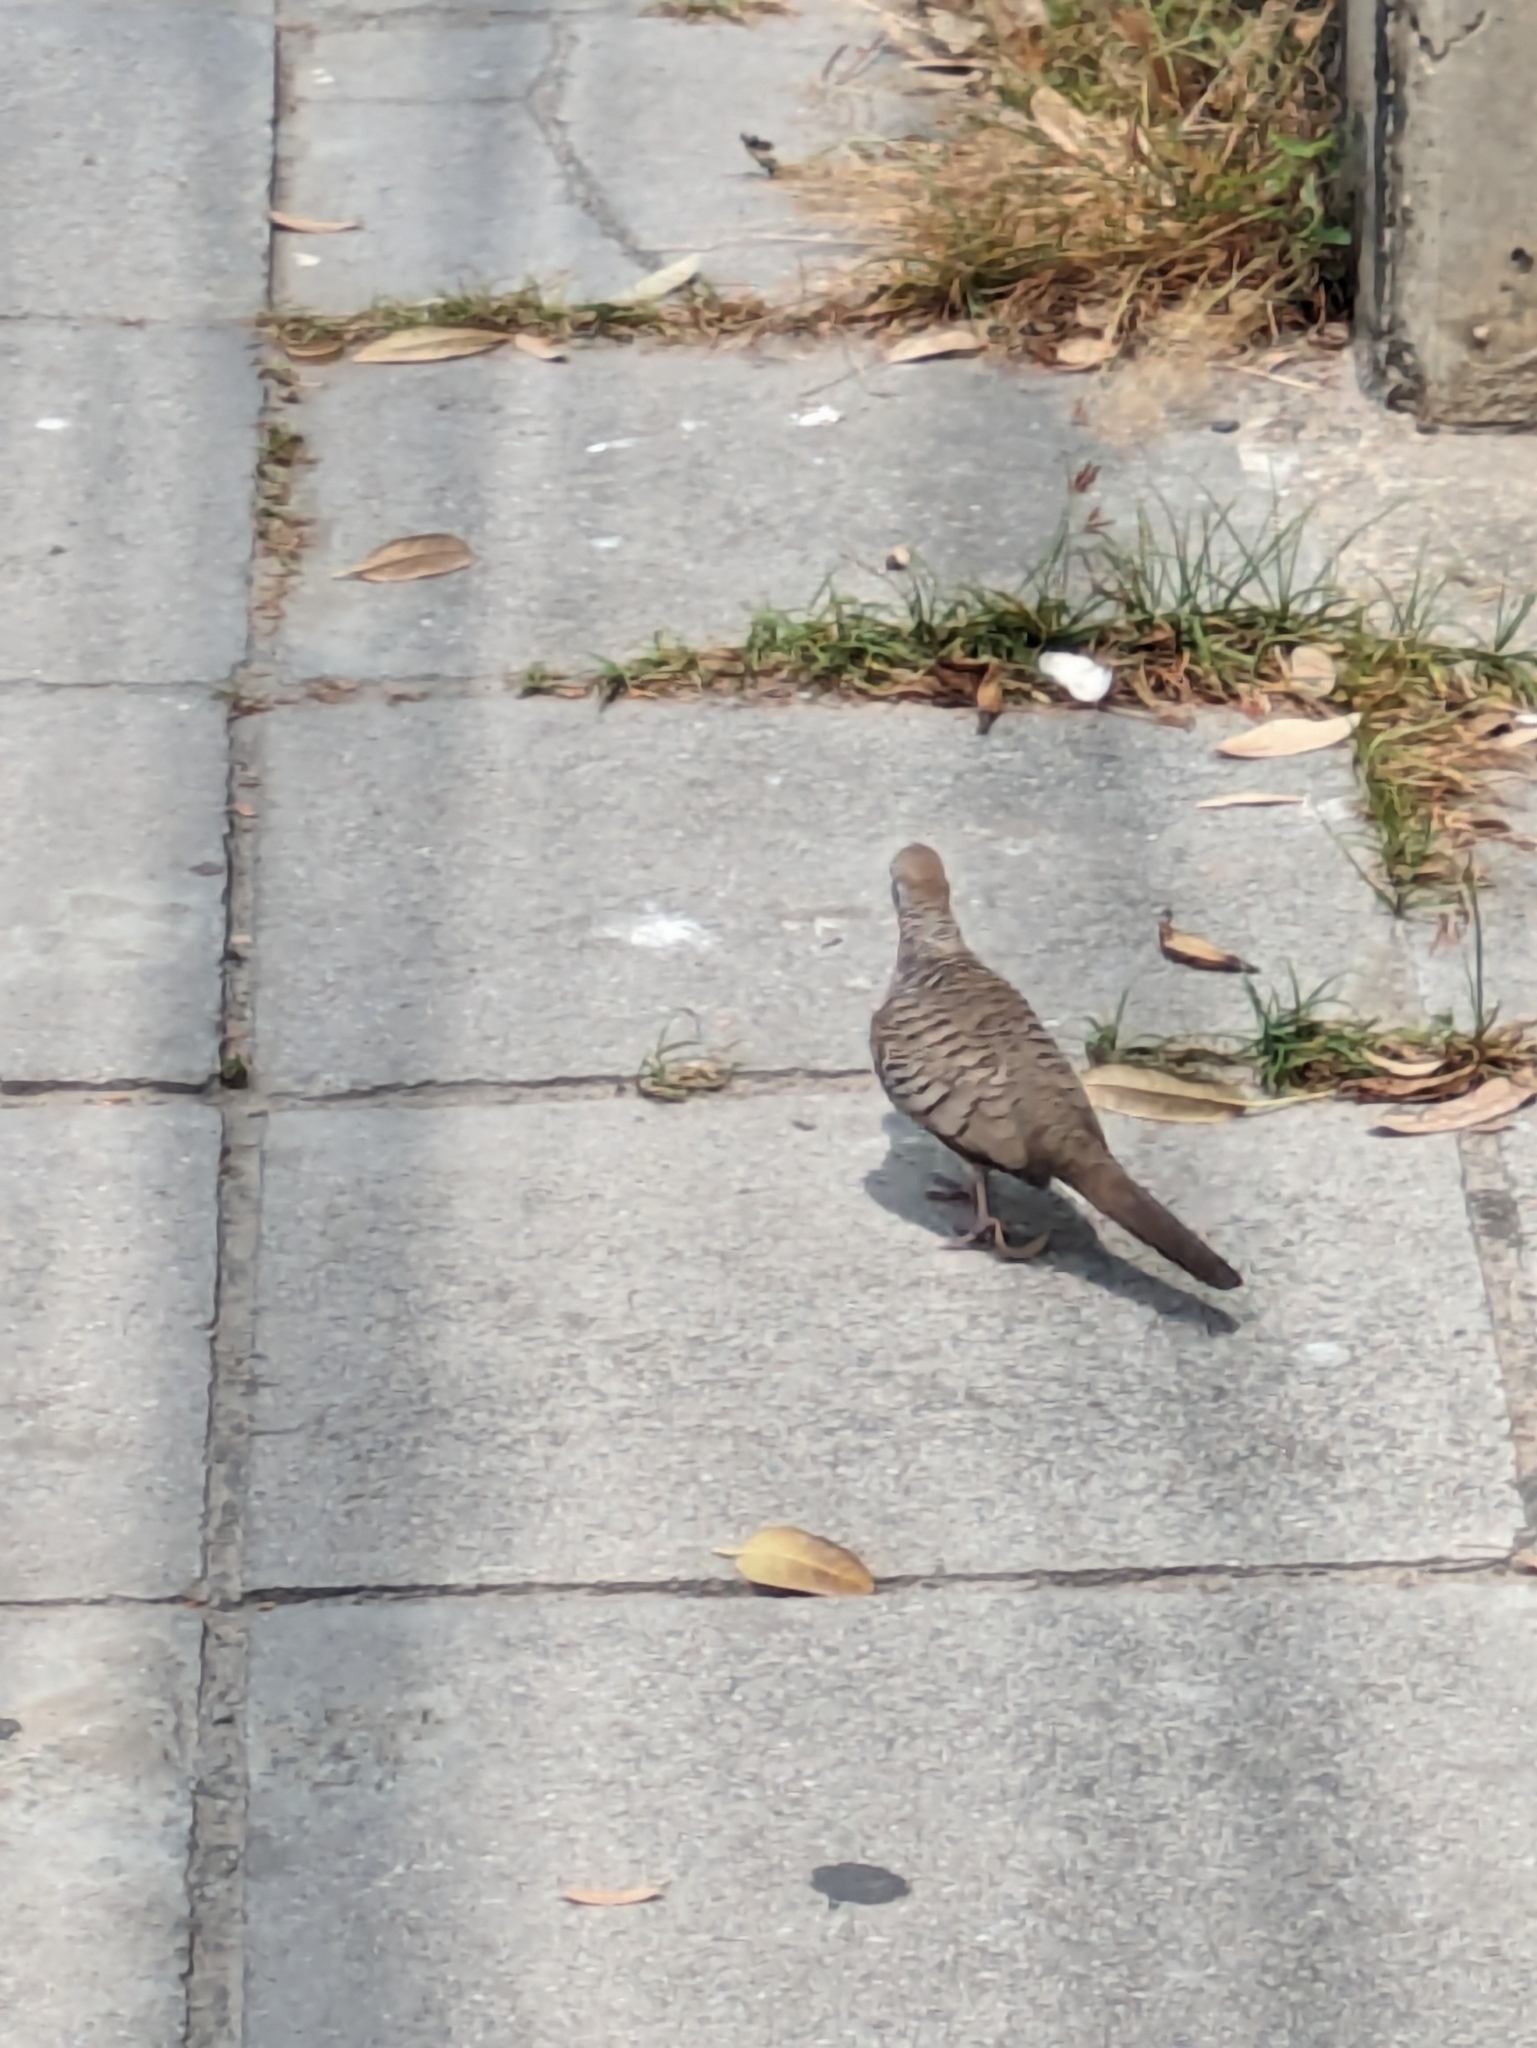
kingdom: Animalia
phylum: Chordata
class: Aves
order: Columbiformes
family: Columbidae
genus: Geopelia
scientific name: Geopelia striata
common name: Zebra dove
